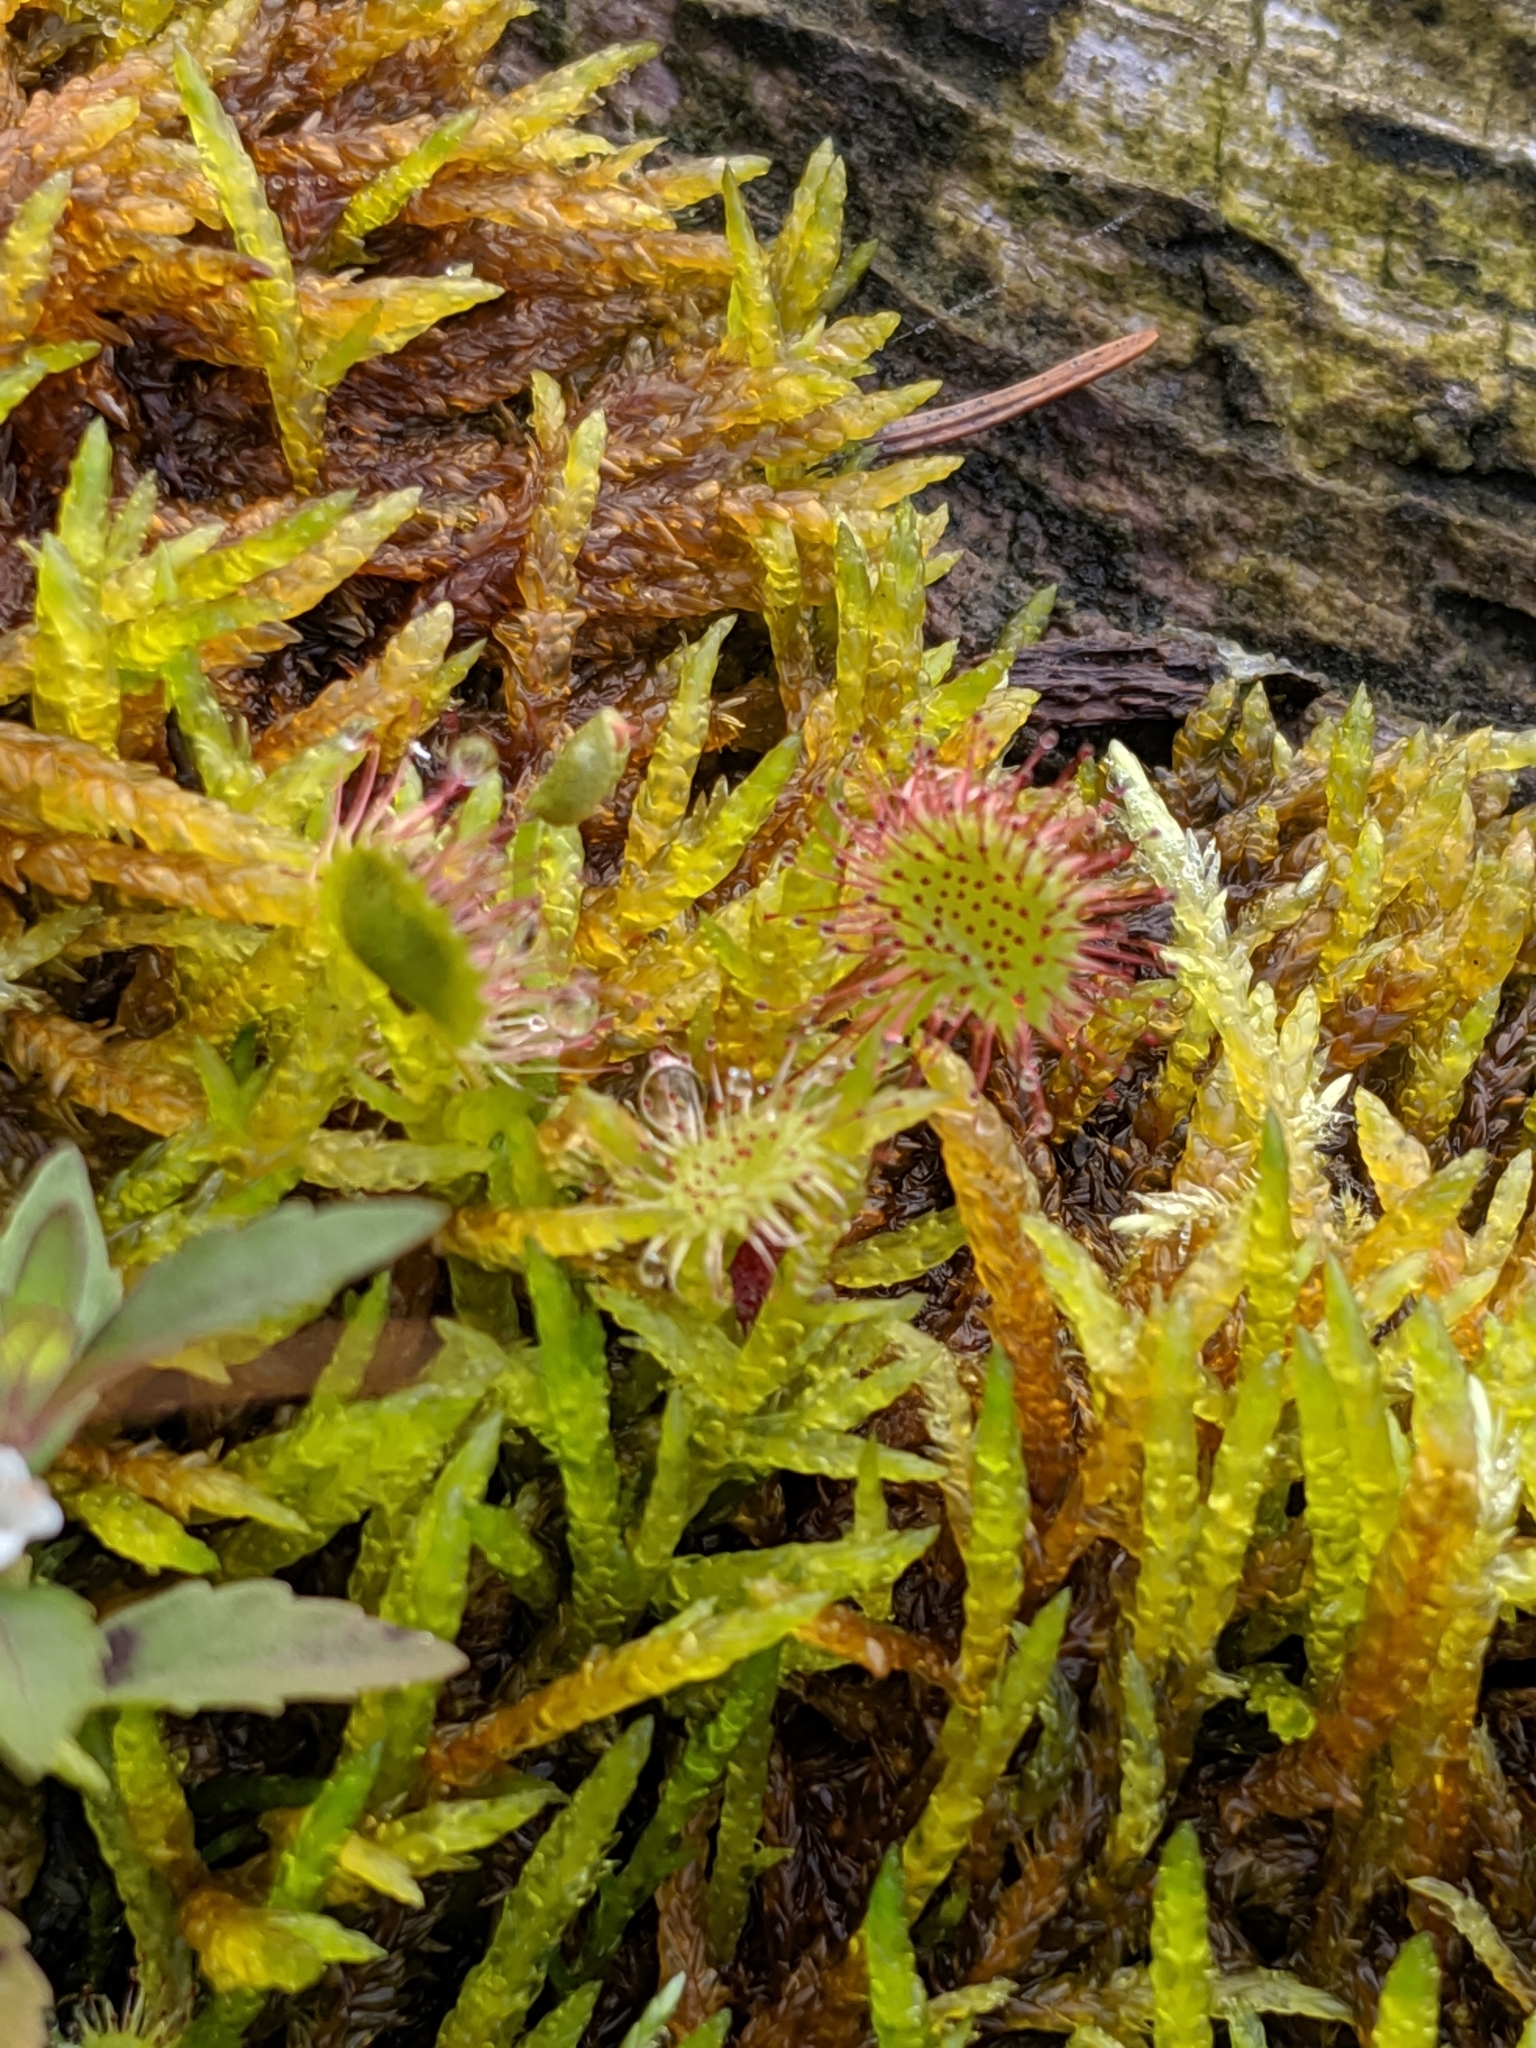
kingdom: Plantae
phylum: Tracheophyta
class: Magnoliopsida
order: Caryophyllales
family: Droseraceae
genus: Drosera
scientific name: Drosera rotundifolia
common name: Round-leaved sundew
